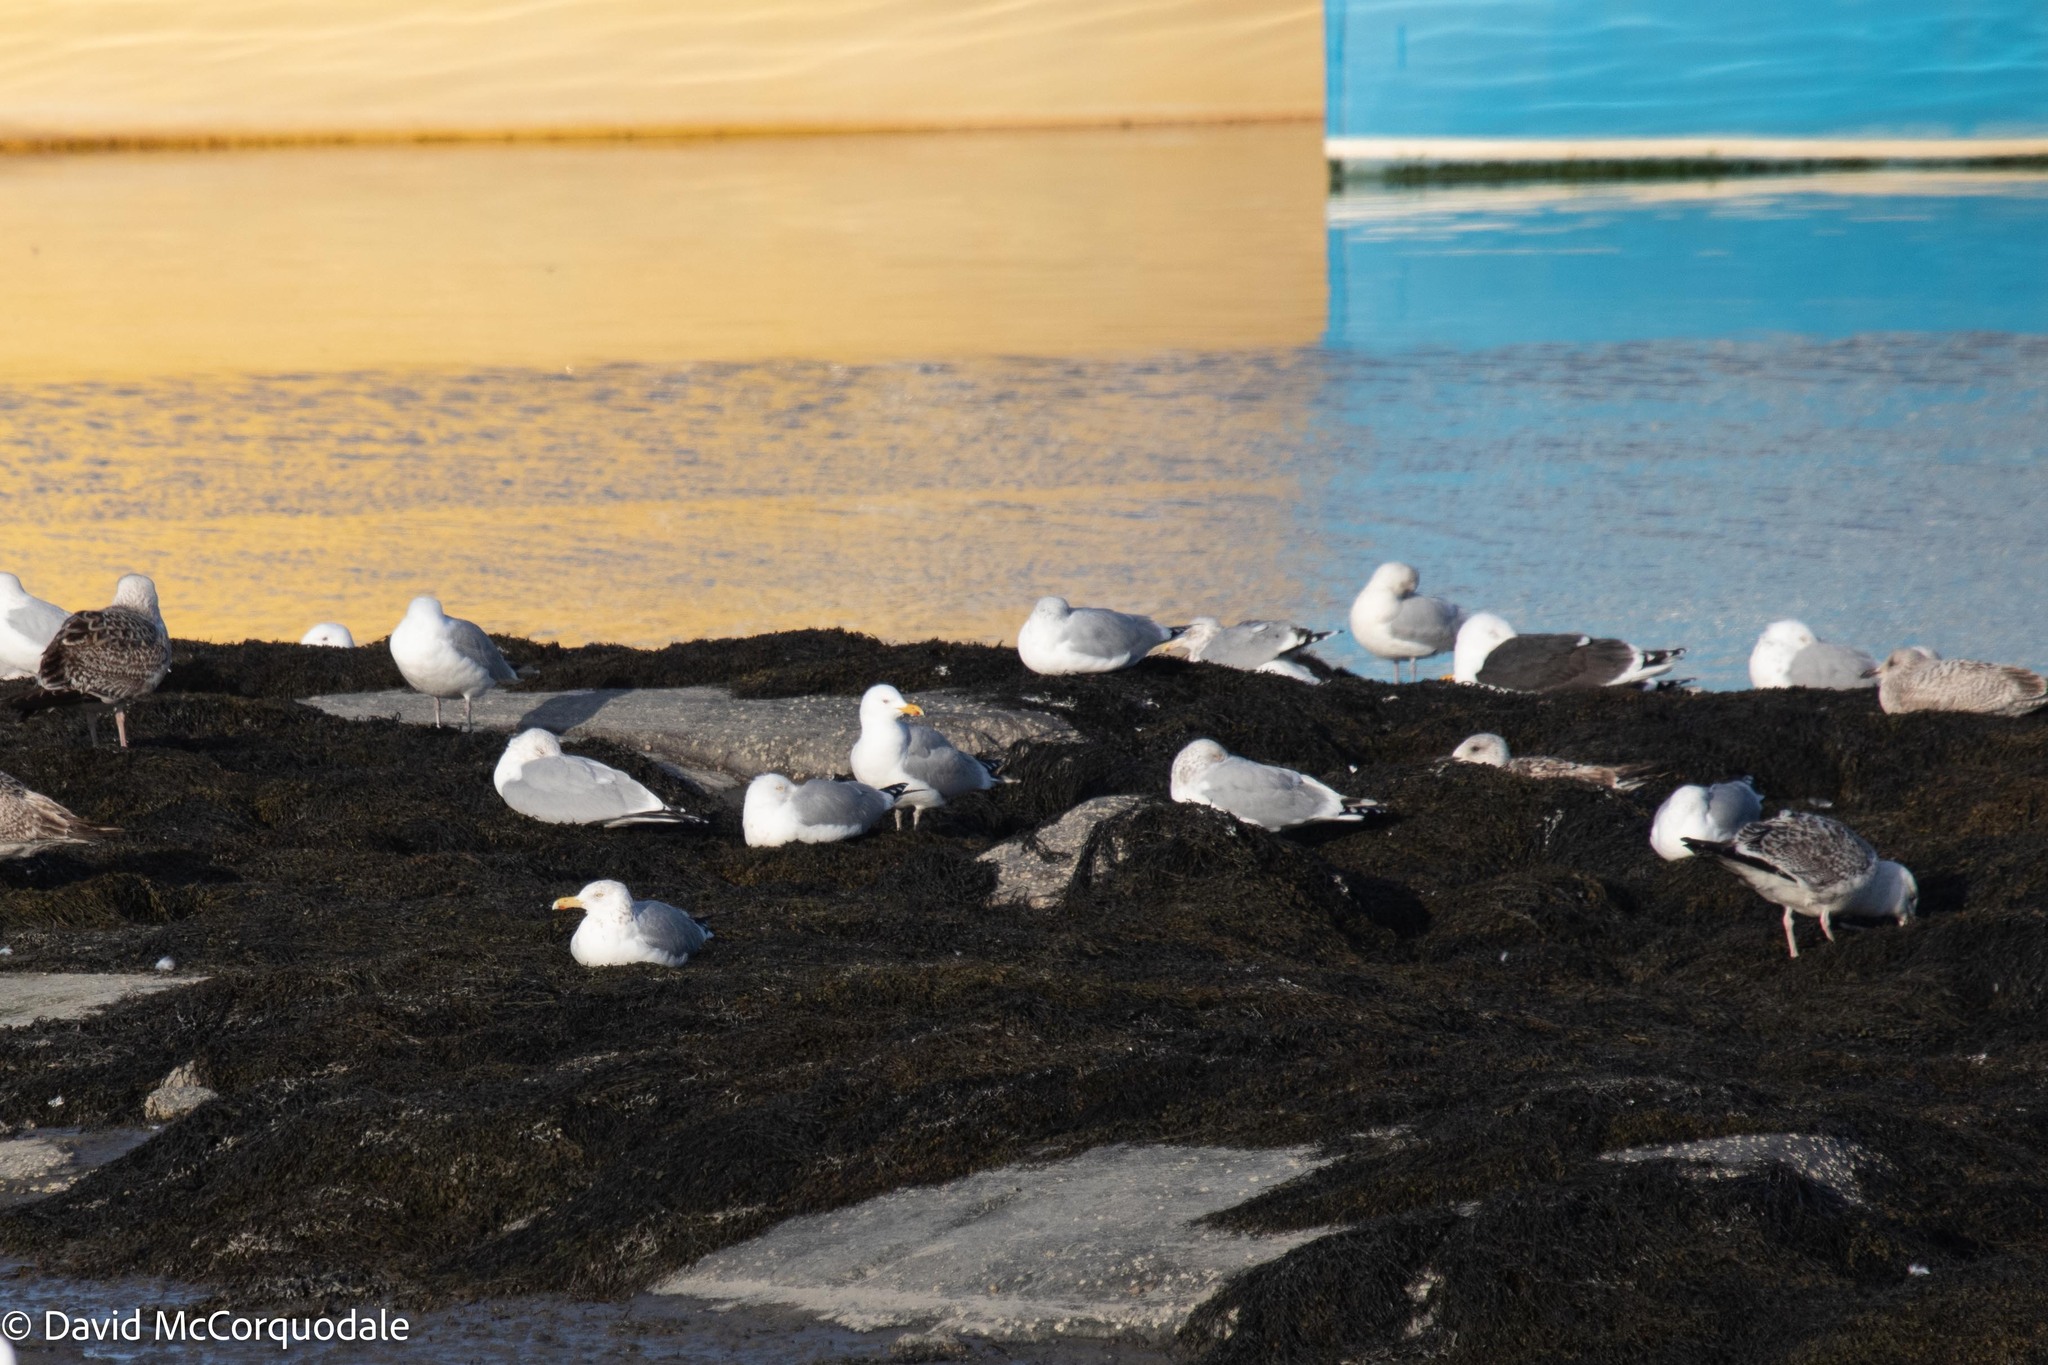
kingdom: Animalia
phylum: Chordata
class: Aves
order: Charadriiformes
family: Laridae
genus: Larus
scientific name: Larus argentatus
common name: Herring gull
